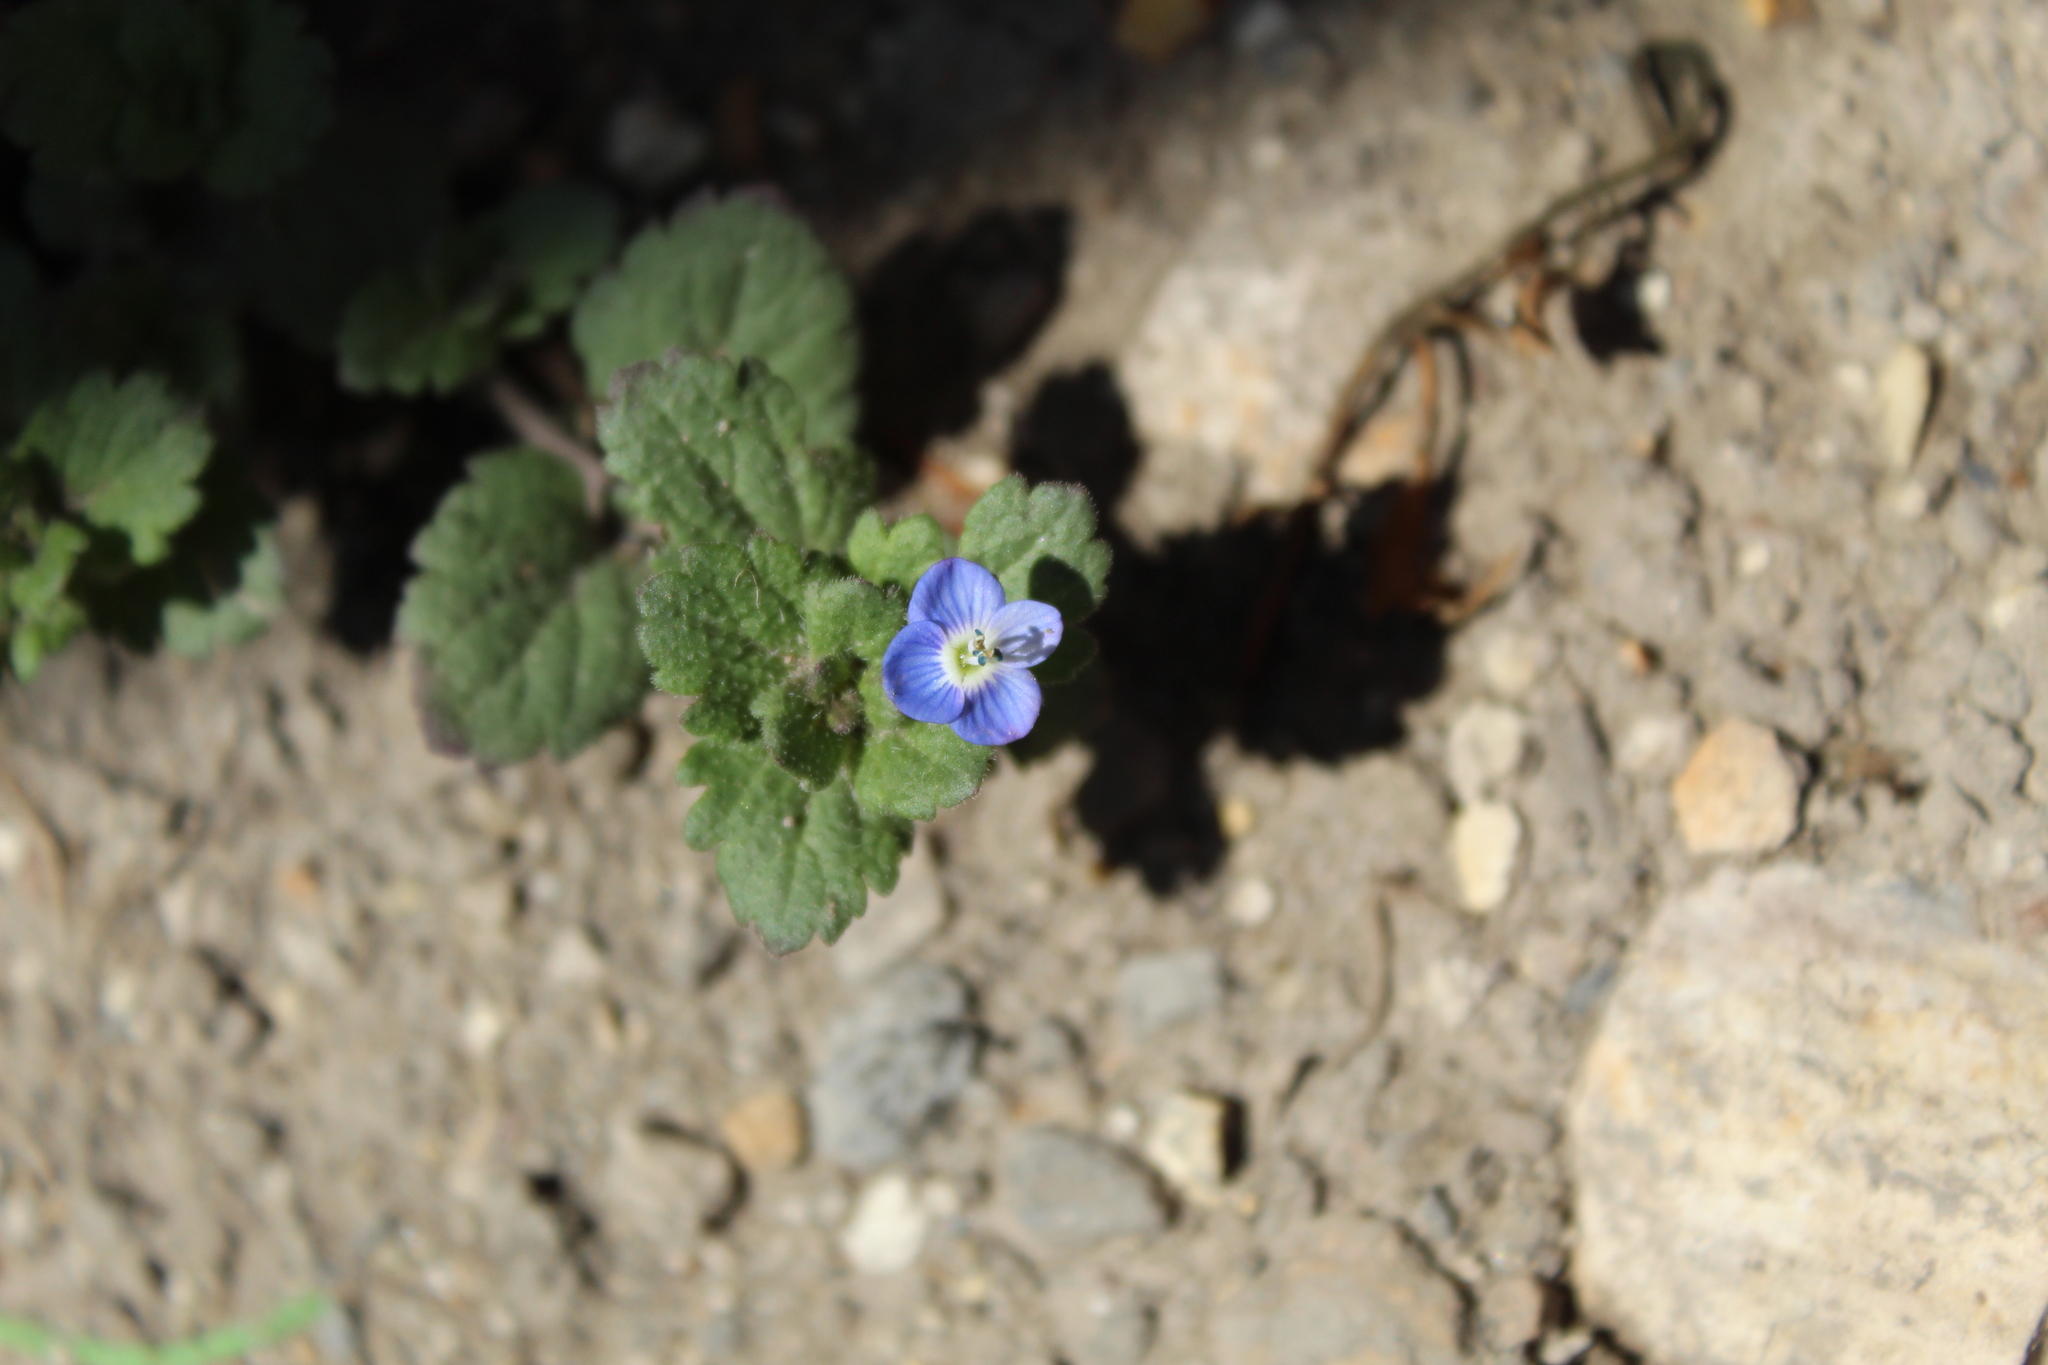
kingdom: Plantae
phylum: Tracheophyta
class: Magnoliopsida
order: Lamiales
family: Plantaginaceae
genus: Veronica
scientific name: Veronica persica
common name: Common field-speedwell
